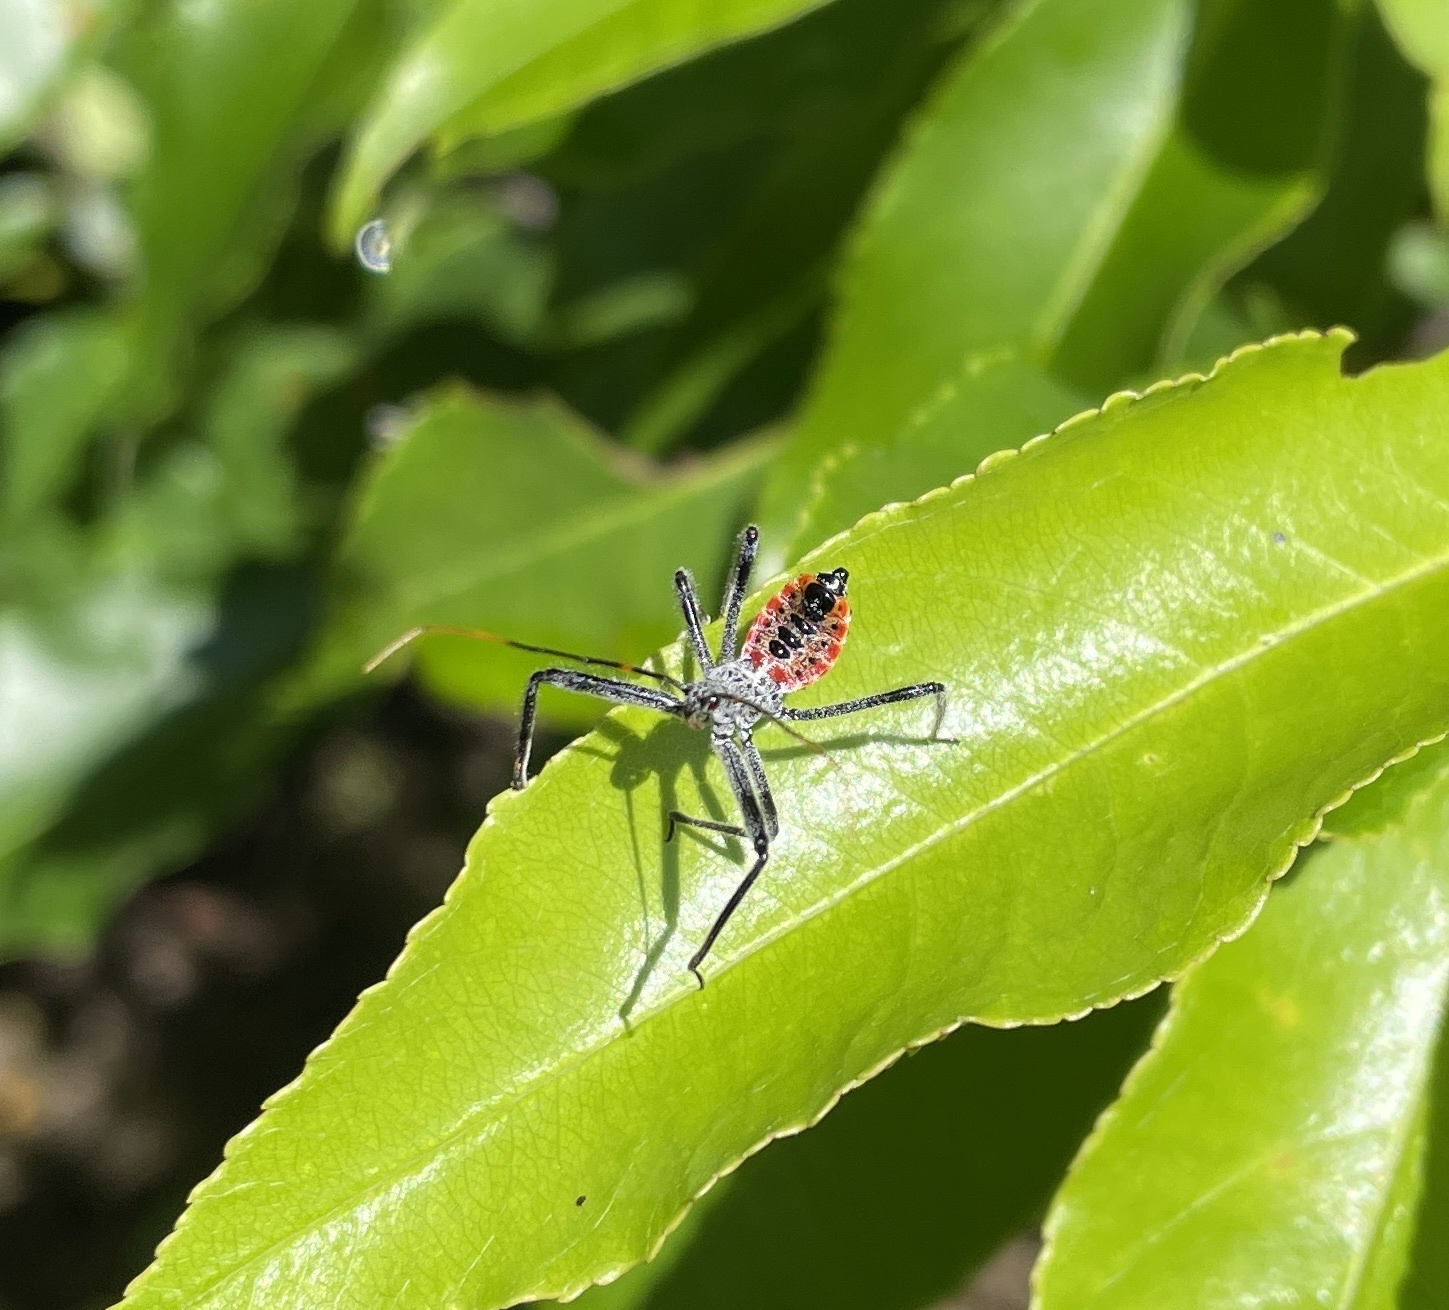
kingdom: Animalia
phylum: Arthropoda
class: Insecta
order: Hemiptera
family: Reduviidae
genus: Arilus
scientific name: Arilus cristatus
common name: North american wheel bug
